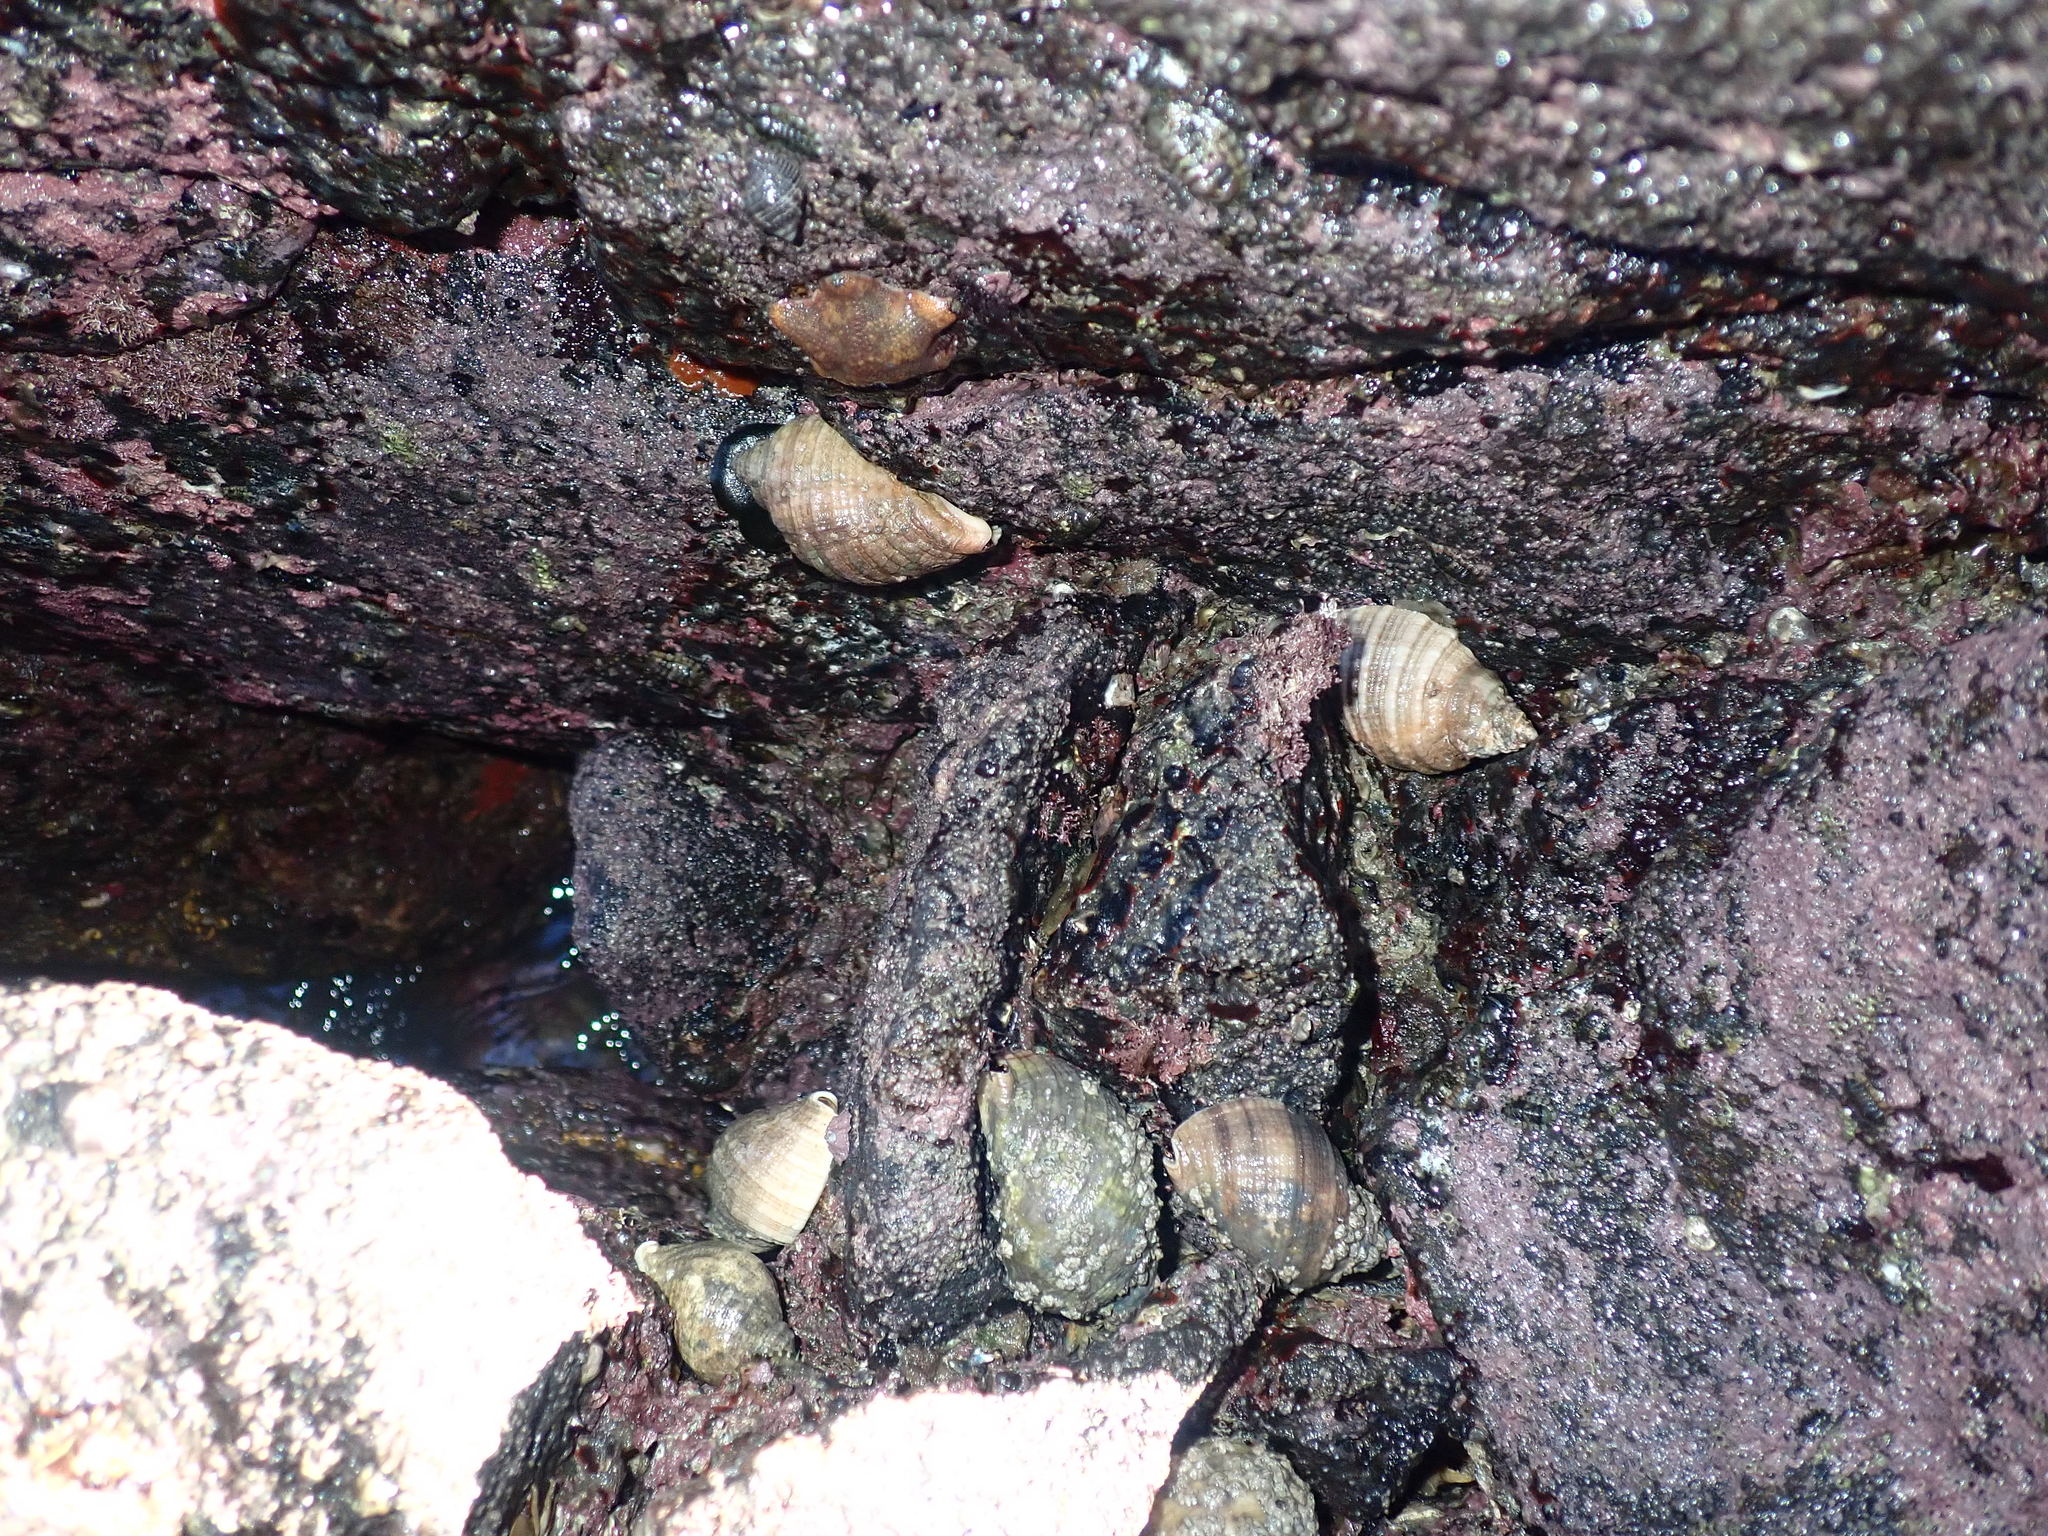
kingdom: Animalia
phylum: Mollusca
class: Gastropoda
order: Neogastropoda
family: Muricidae
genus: Dicathais
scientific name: Dicathais orbita
